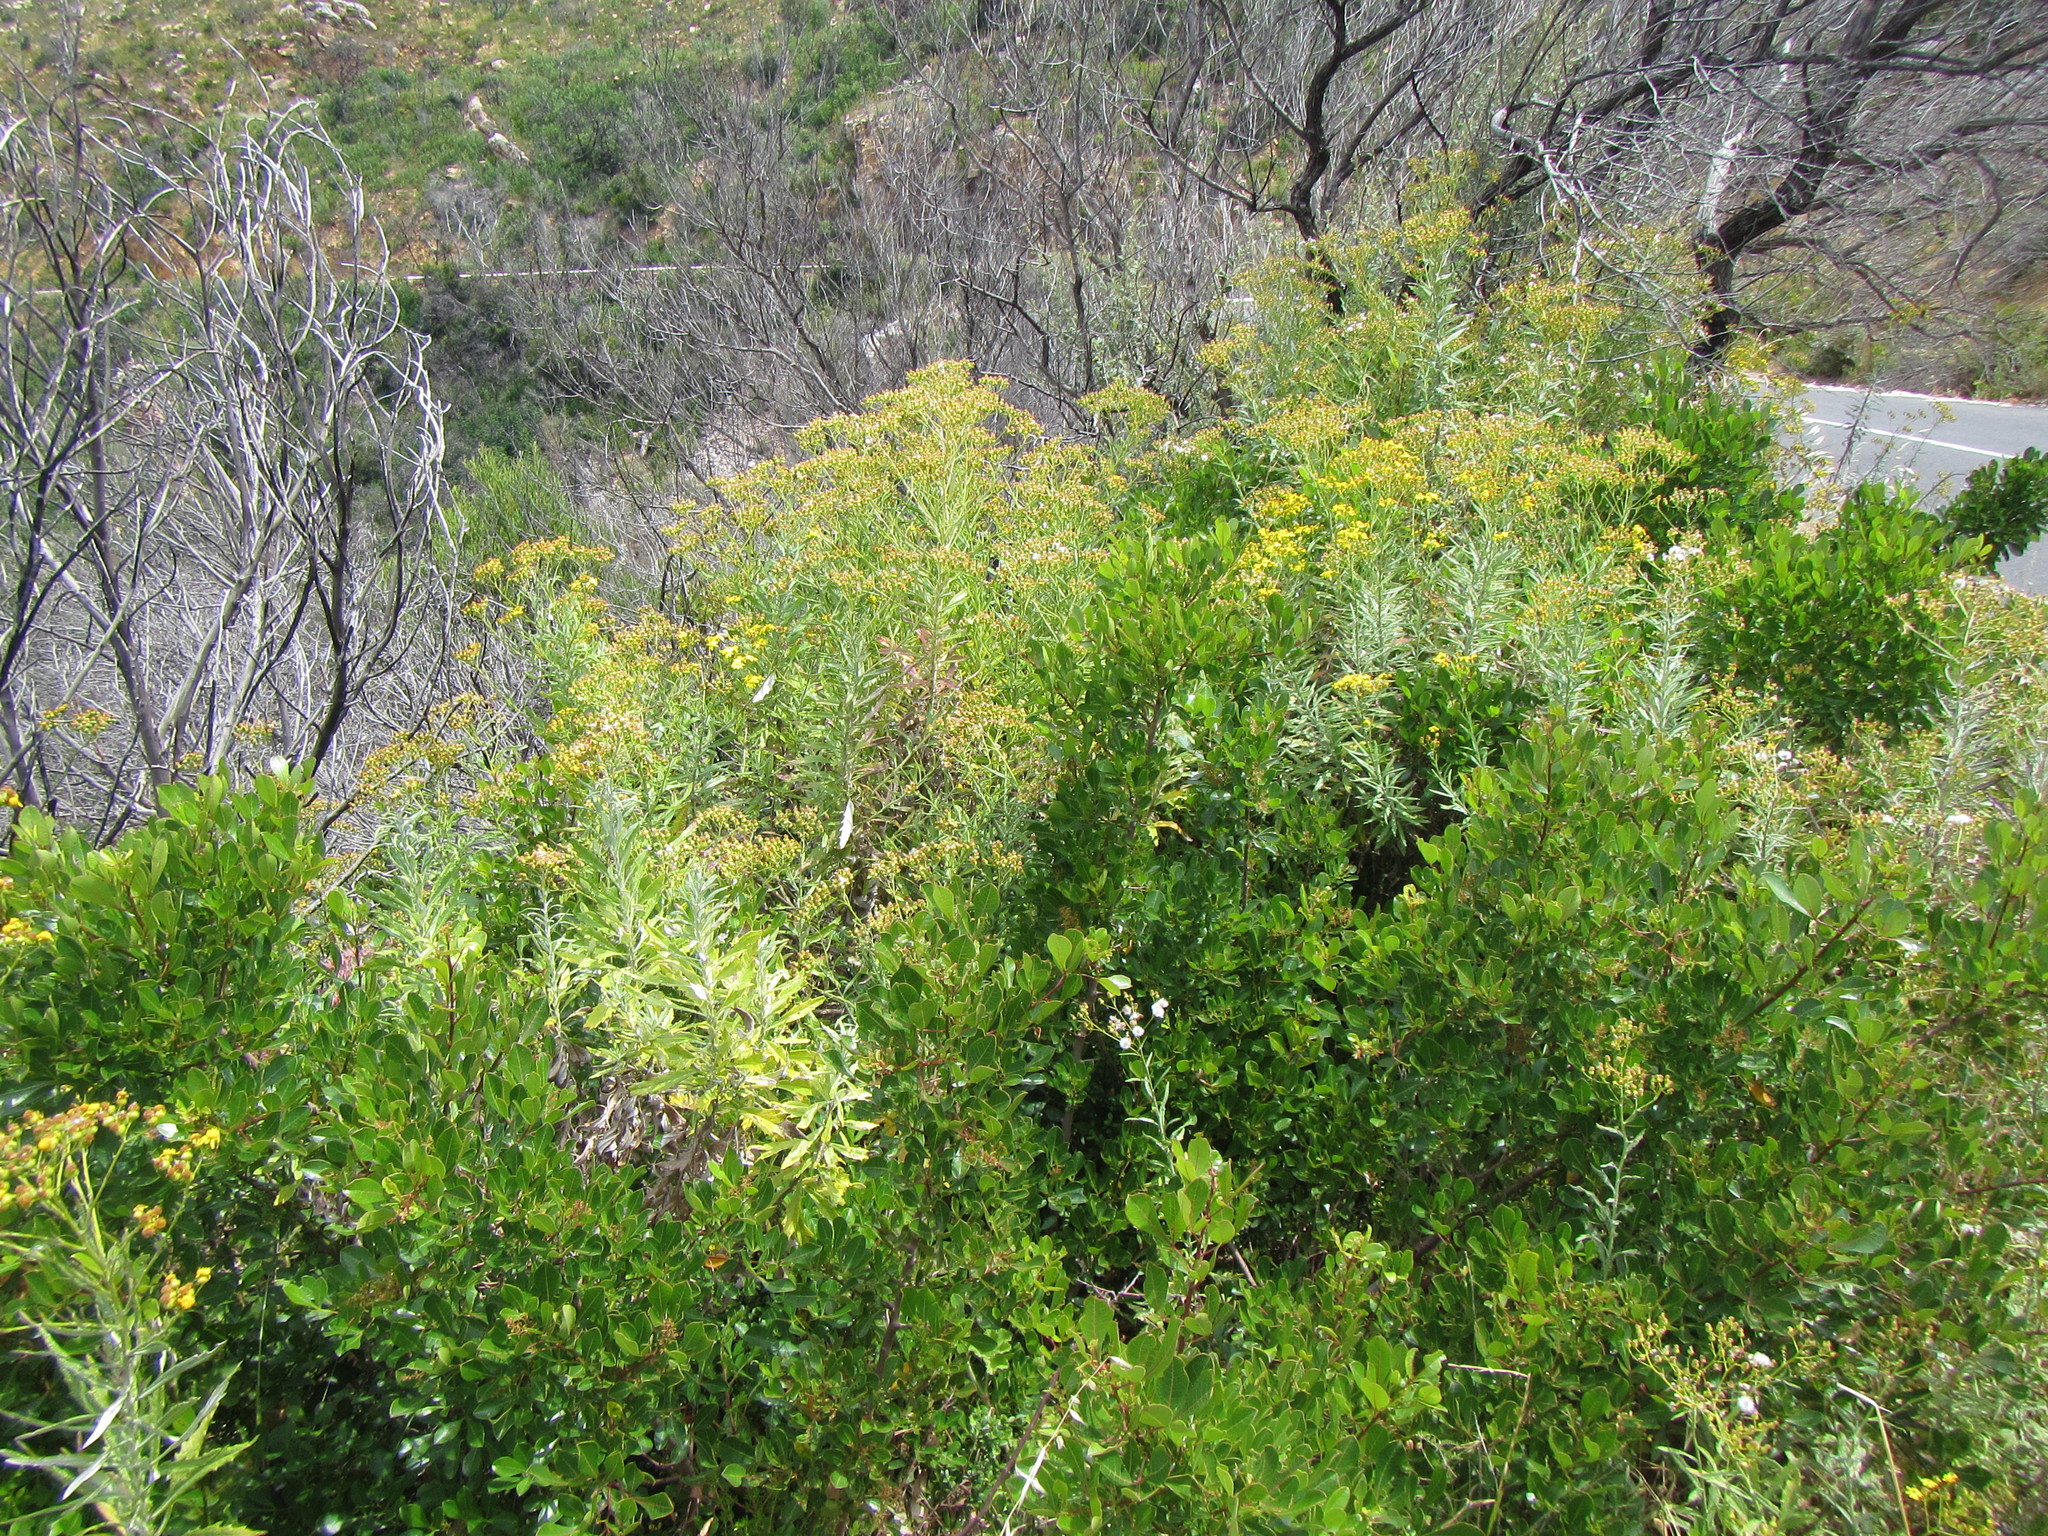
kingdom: Plantae
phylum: Tracheophyta
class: Magnoliopsida
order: Asterales
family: Asteraceae
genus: Senecio
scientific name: Senecio pterophorus
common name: Shoddy ragwort
